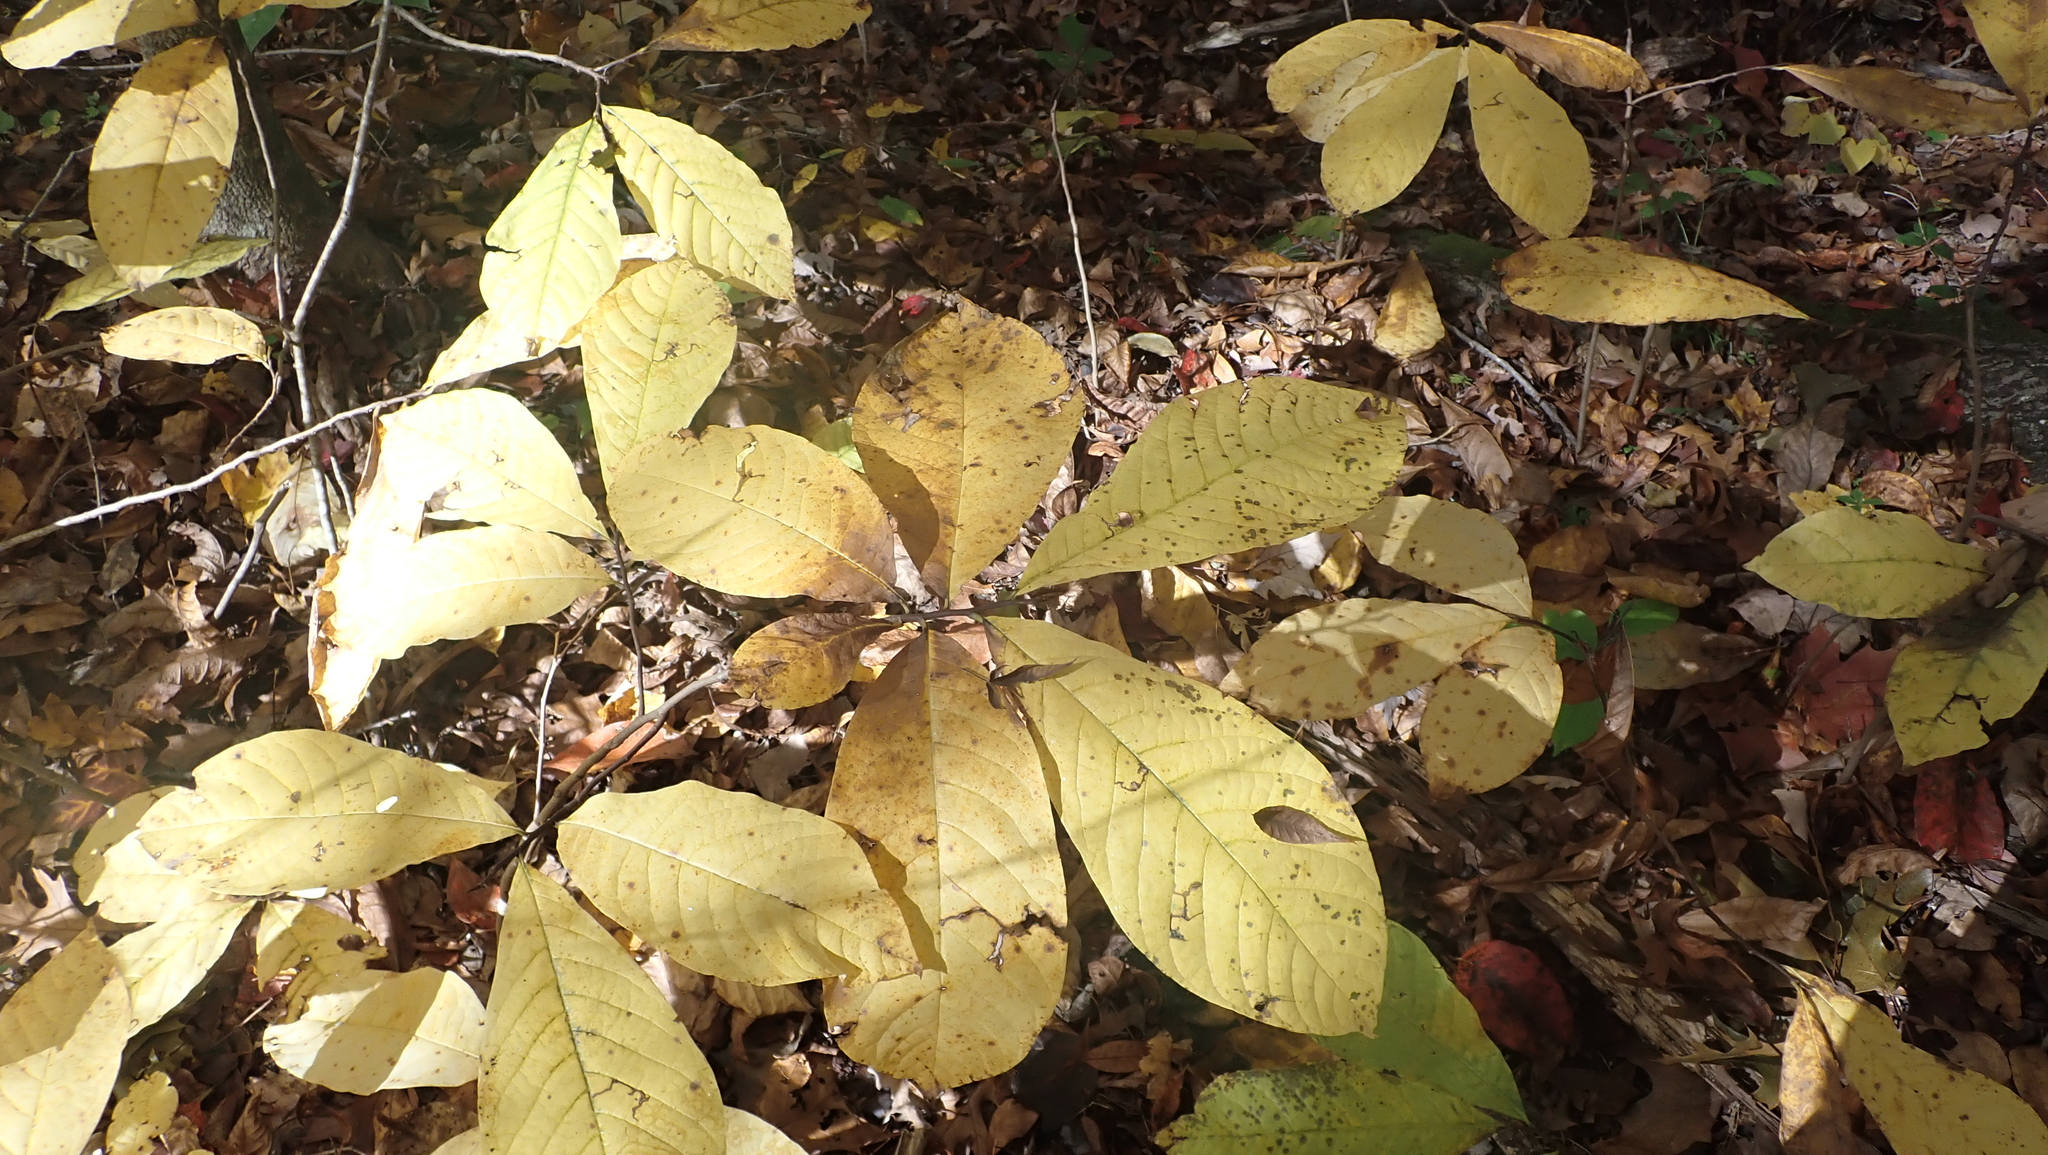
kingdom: Plantae
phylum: Tracheophyta
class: Magnoliopsida
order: Magnoliales
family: Annonaceae
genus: Asimina
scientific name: Asimina triloba
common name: Dog-banana
